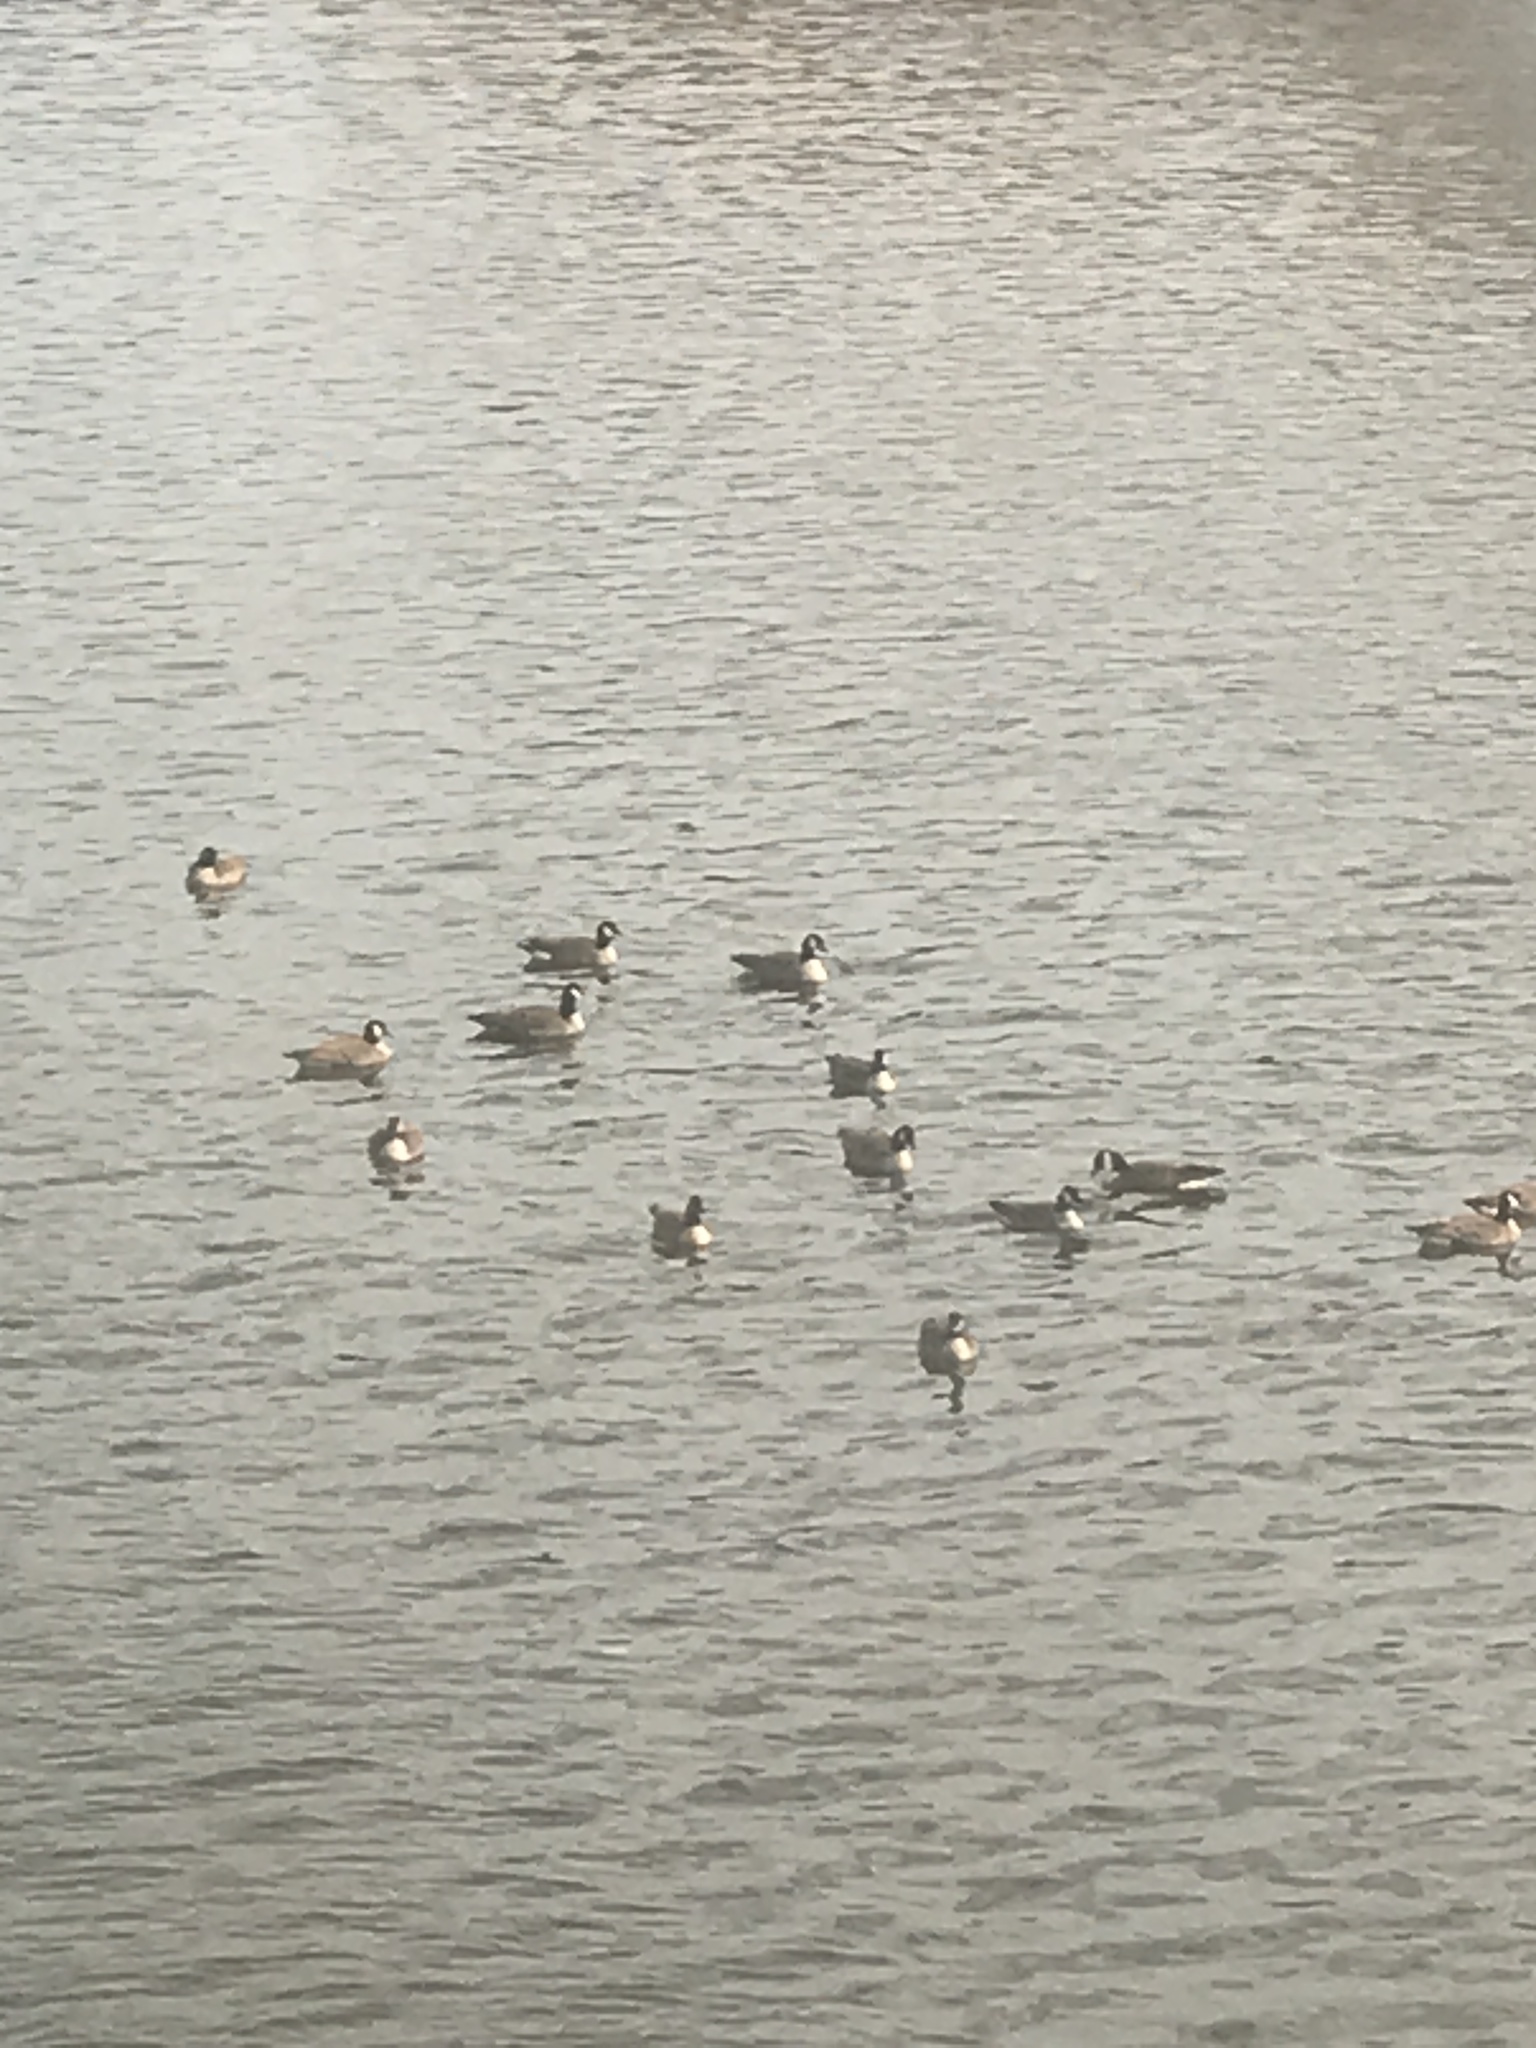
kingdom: Animalia
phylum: Chordata
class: Aves
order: Anseriformes
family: Anatidae
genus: Branta
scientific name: Branta canadensis
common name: Canada goose
